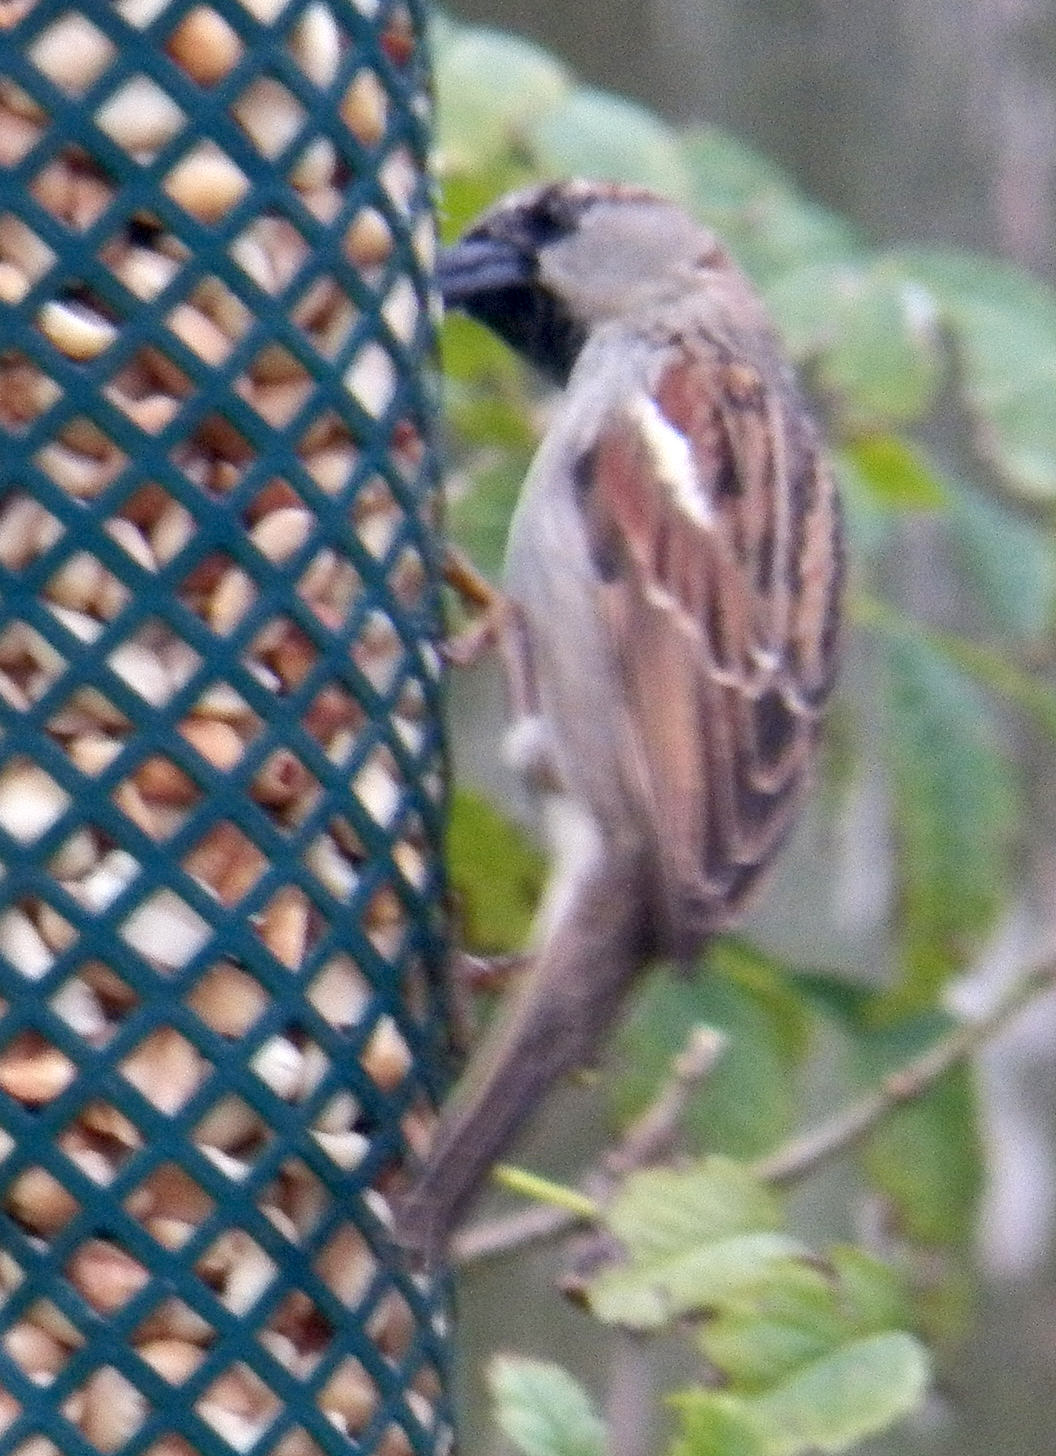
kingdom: Animalia
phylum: Chordata
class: Aves
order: Passeriformes
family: Passeridae
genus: Passer
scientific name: Passer domesticus
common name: House sparrow
